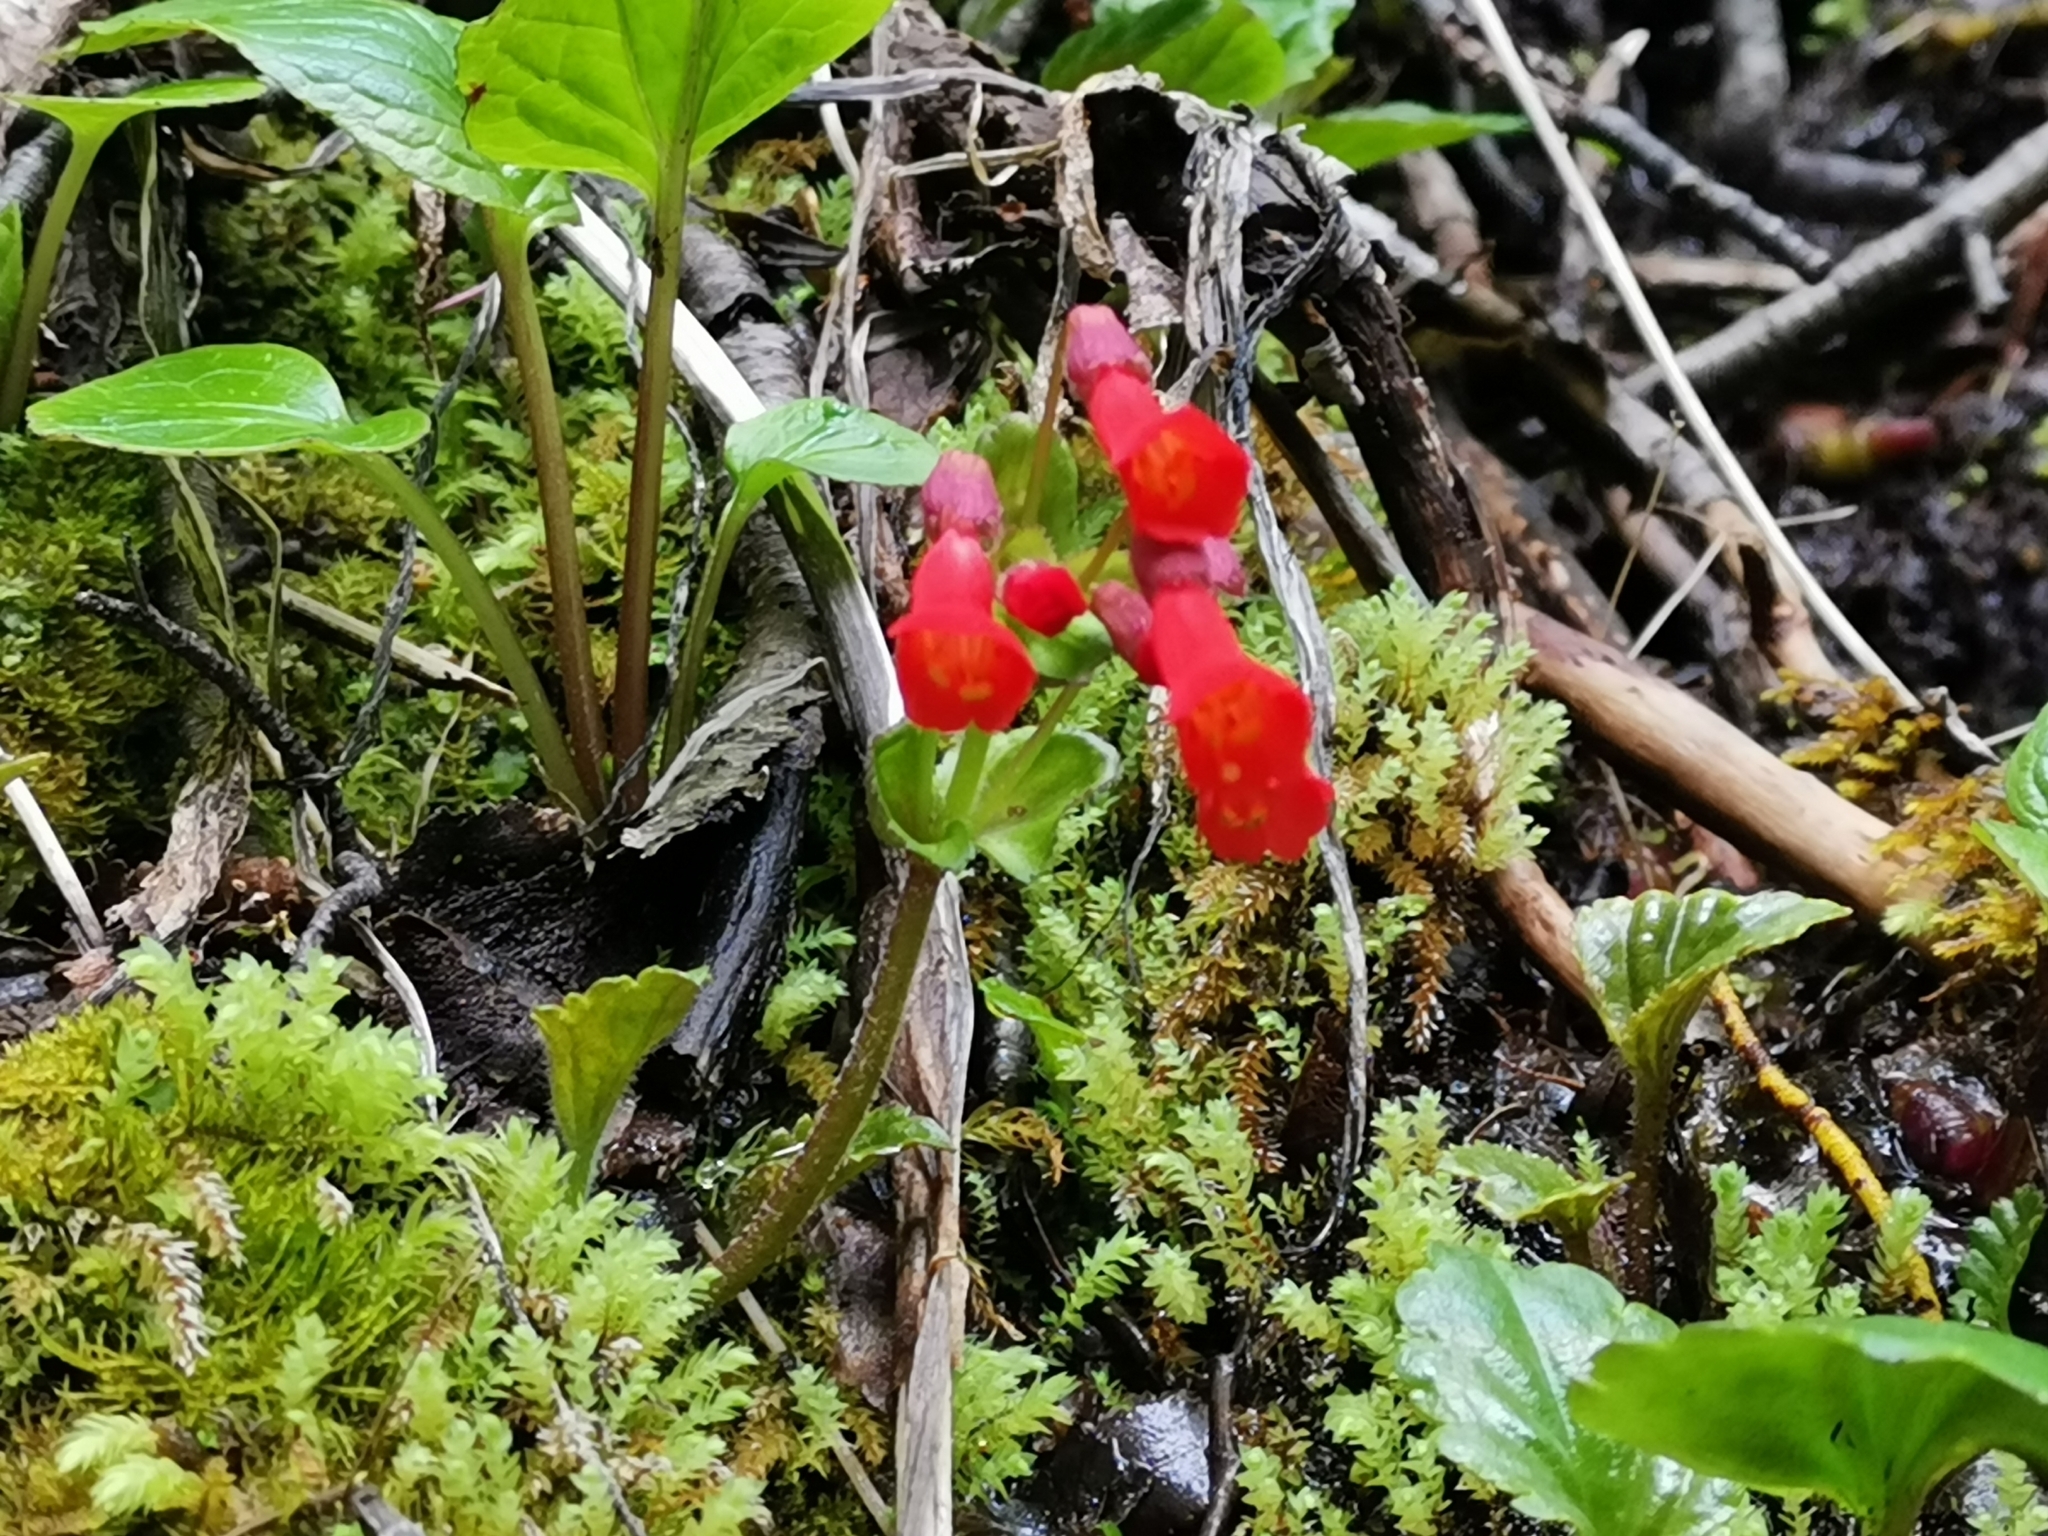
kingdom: Plantae
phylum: Tracheophyta
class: Magnoliopsida
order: Lamiales
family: Plantaginaceae
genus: Ourisia
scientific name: Ourisia ruellioides
